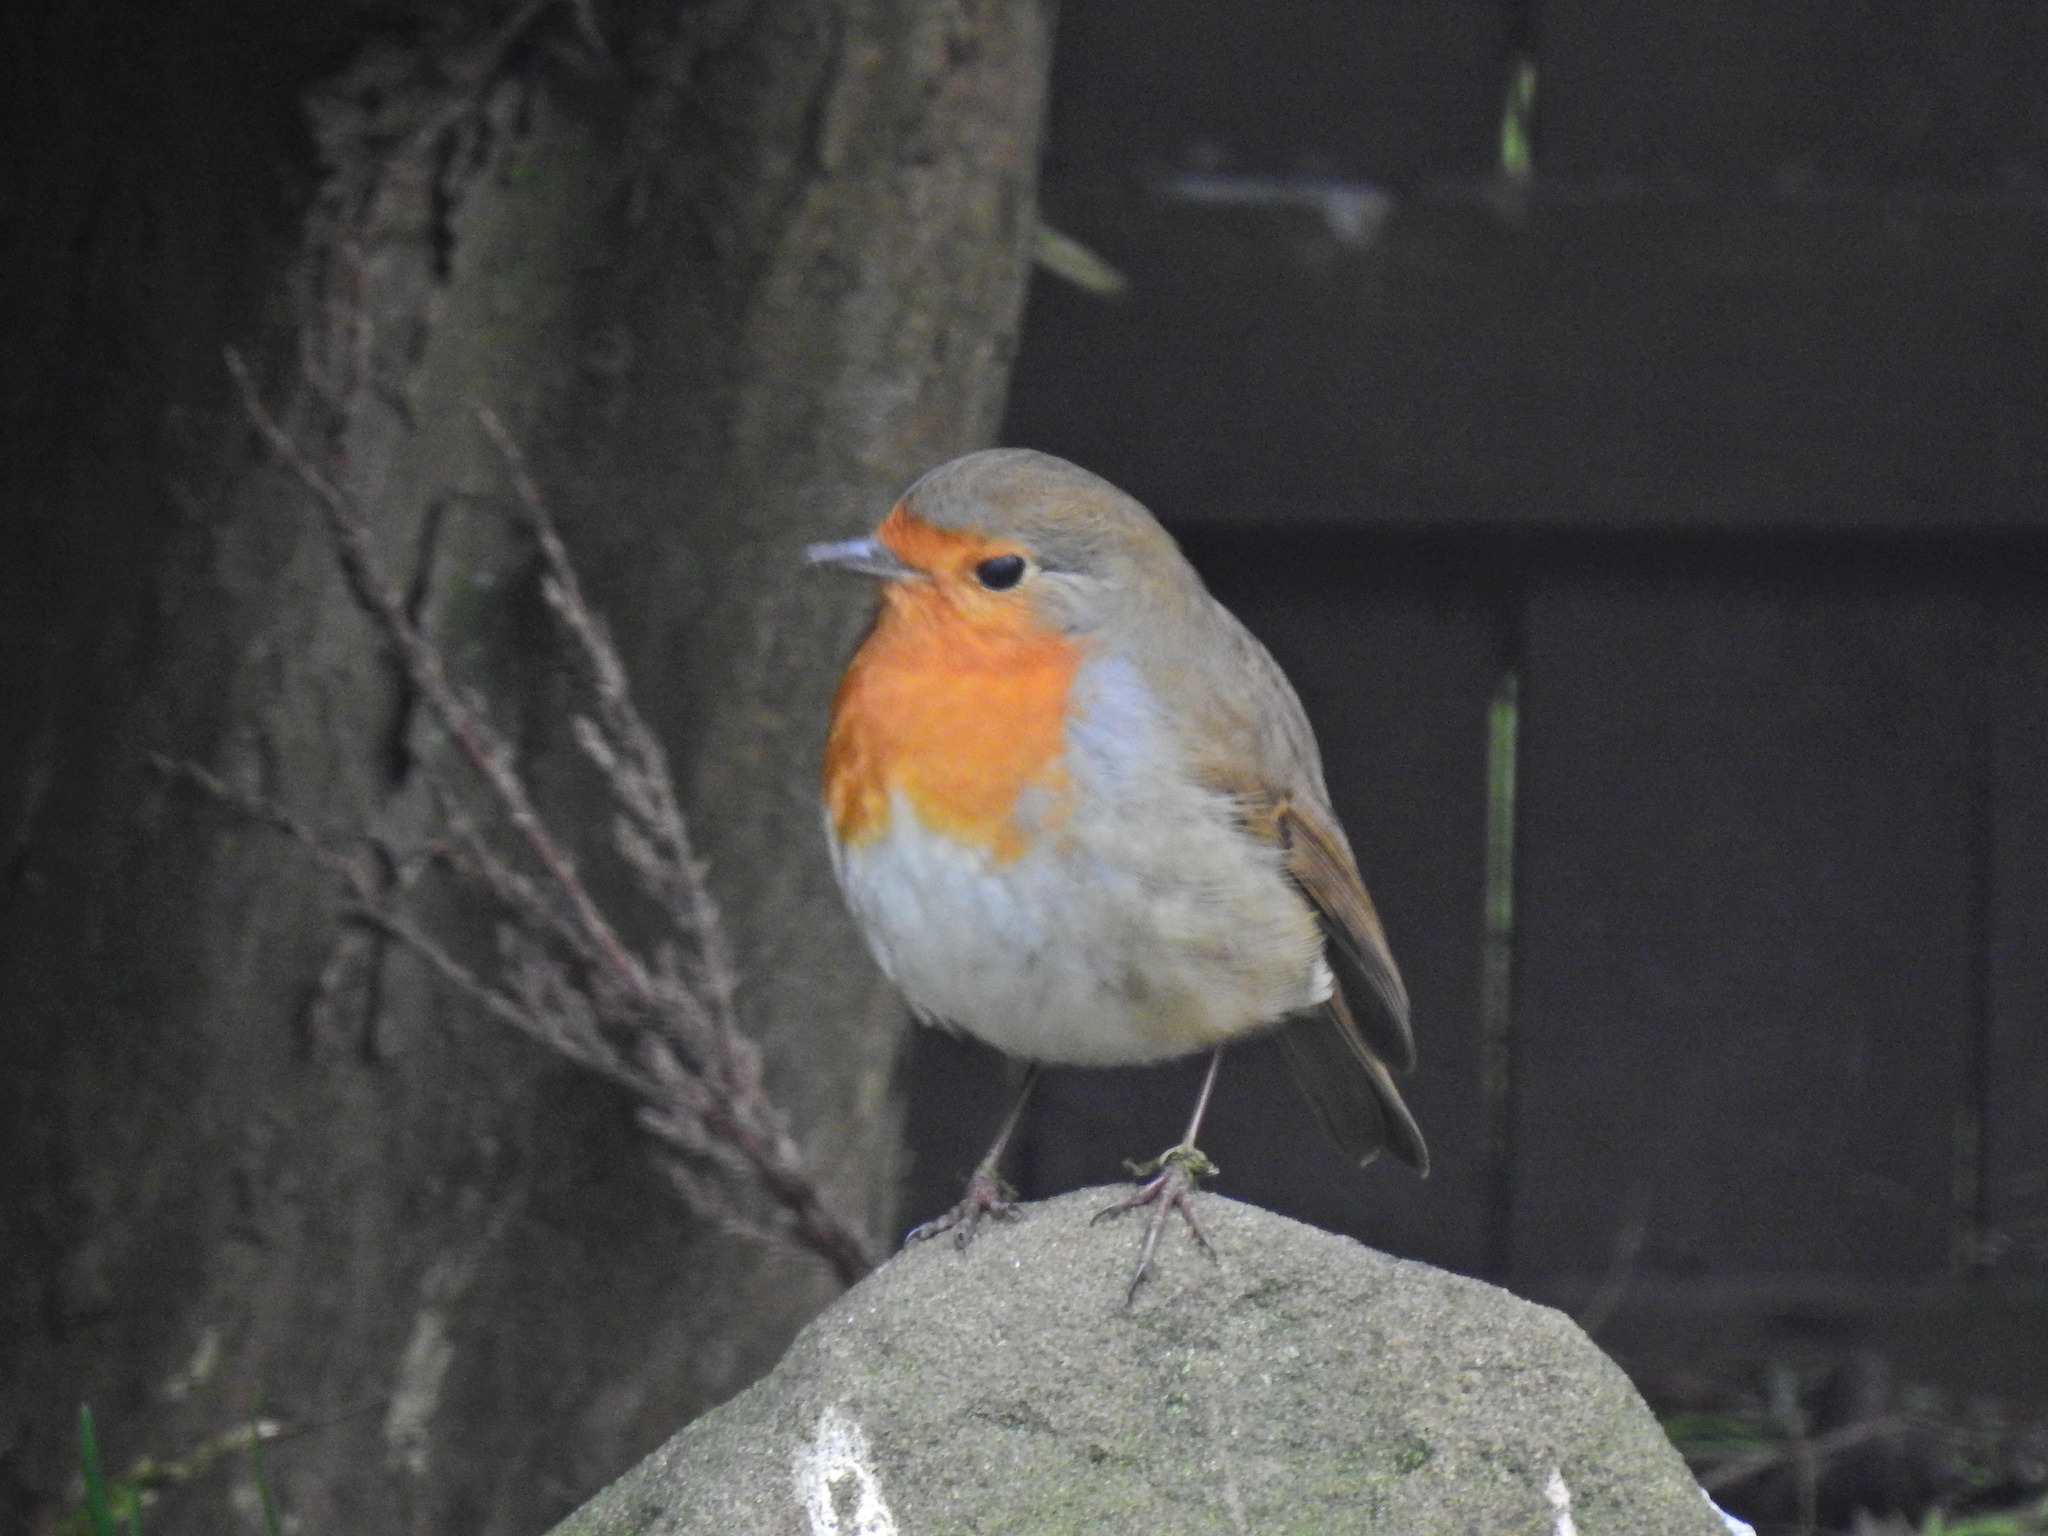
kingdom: Animalia
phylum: Chordata
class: Aves
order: Passeriformes
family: Muscicapidae
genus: Erithacus
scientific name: Erithacus rubecula
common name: European robin
